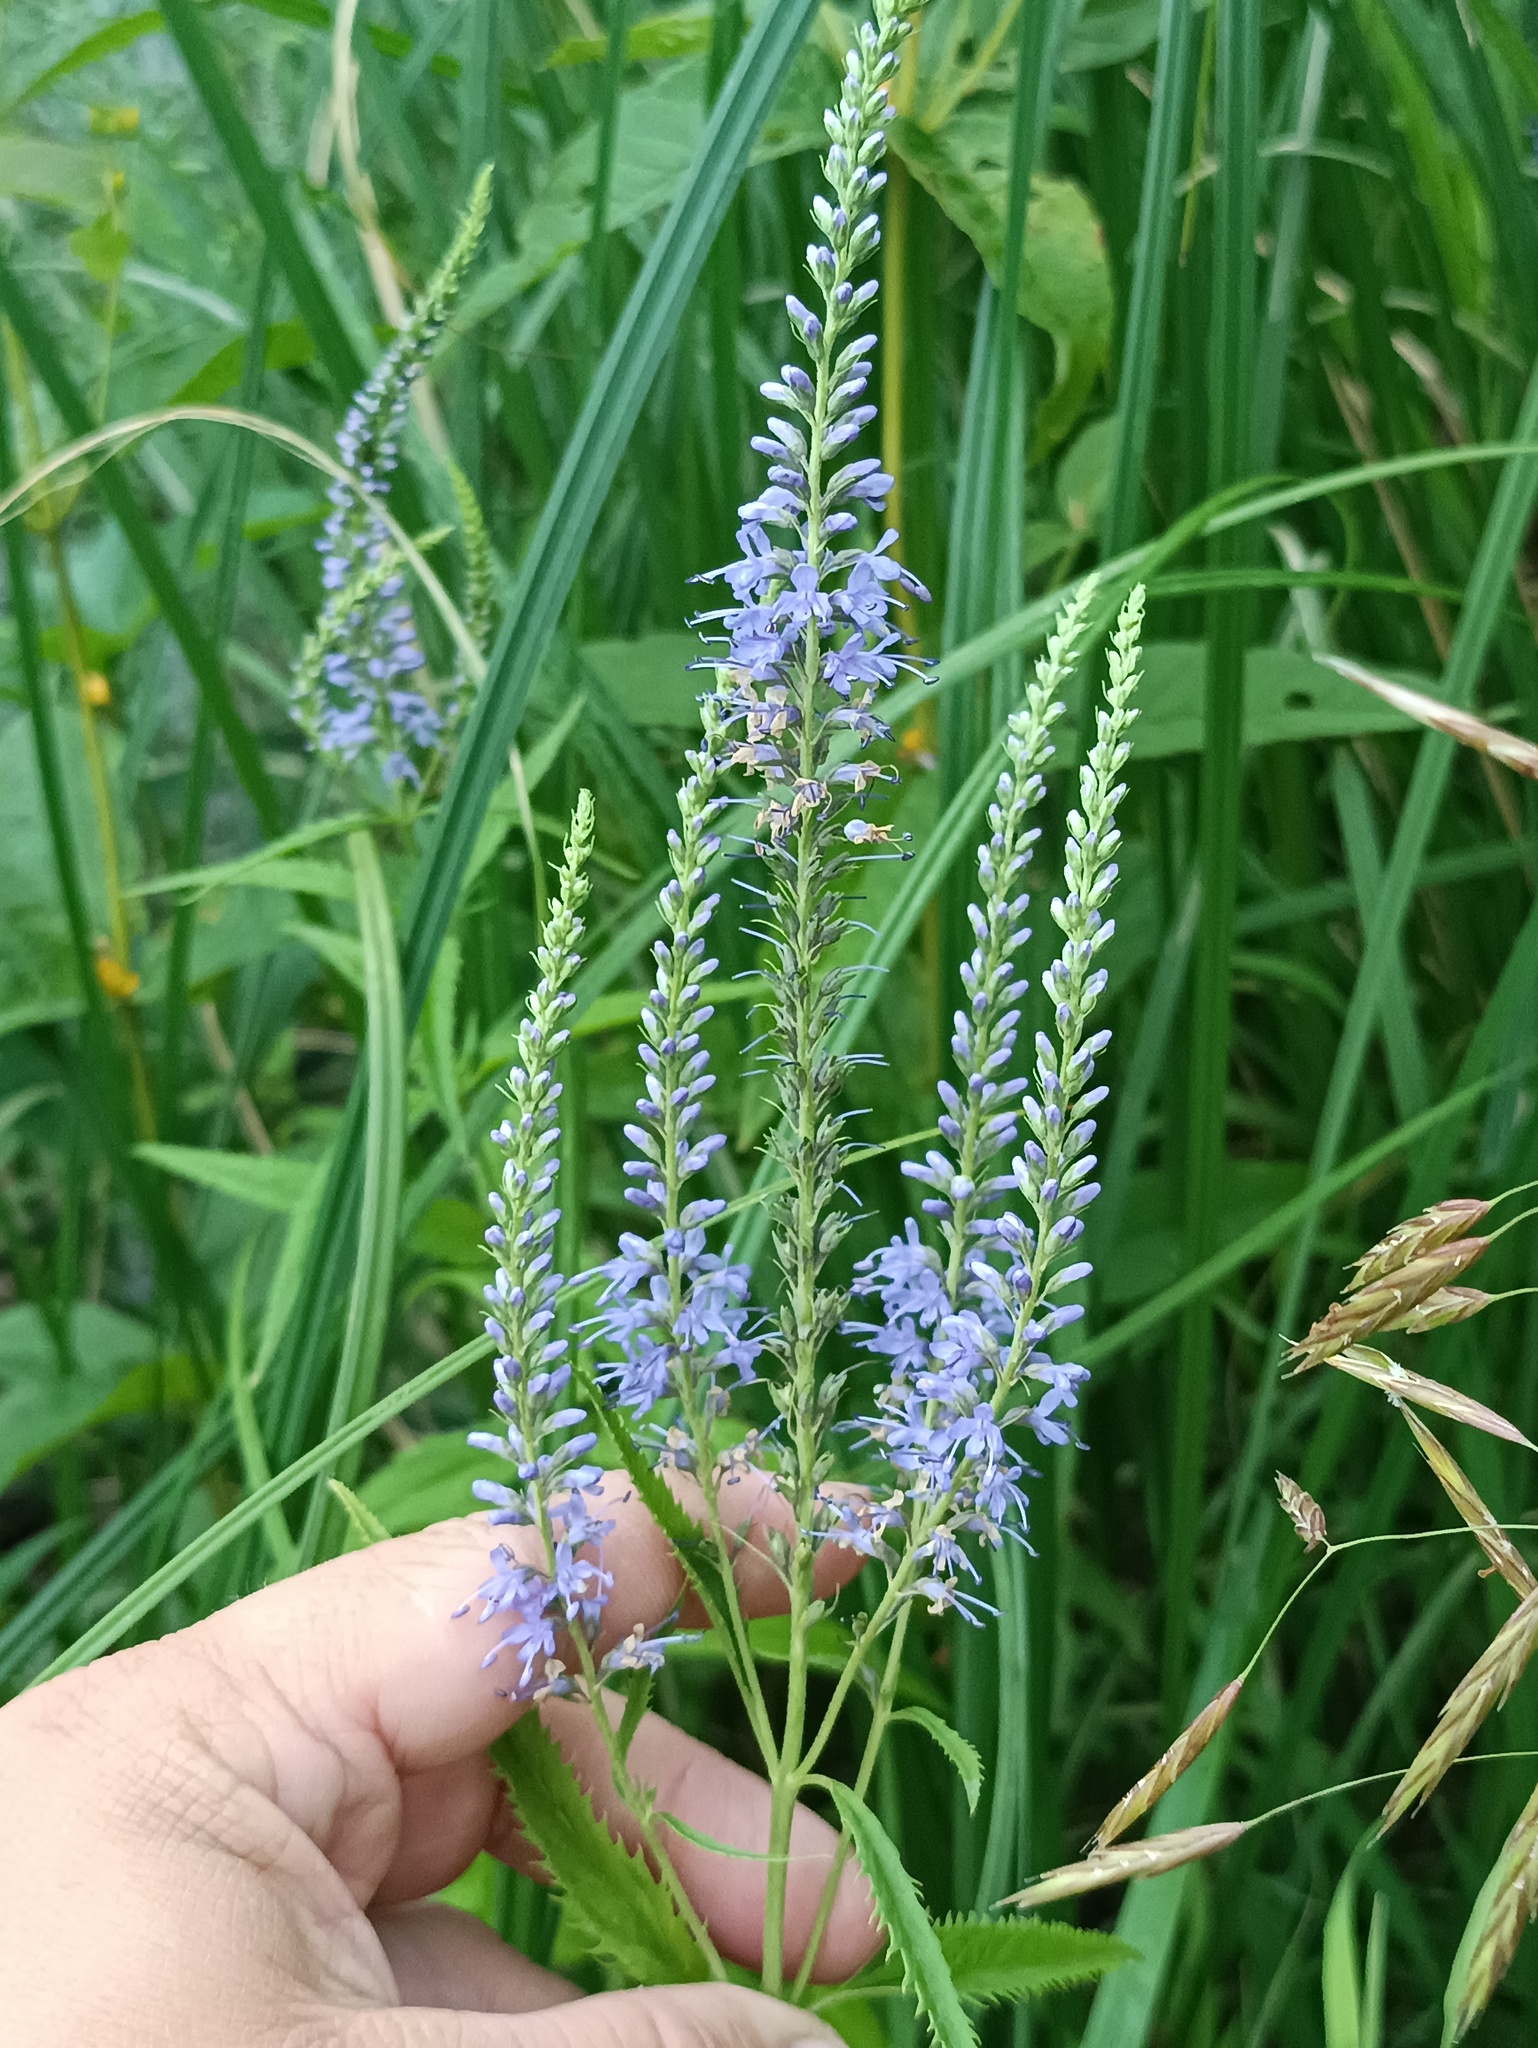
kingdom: Plantae
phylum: Tracheophyta
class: Magnoliopsida
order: Lamiales
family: Plantaginaceae
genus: Veronica
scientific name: Veronica longifolia
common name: Garden speedwell
